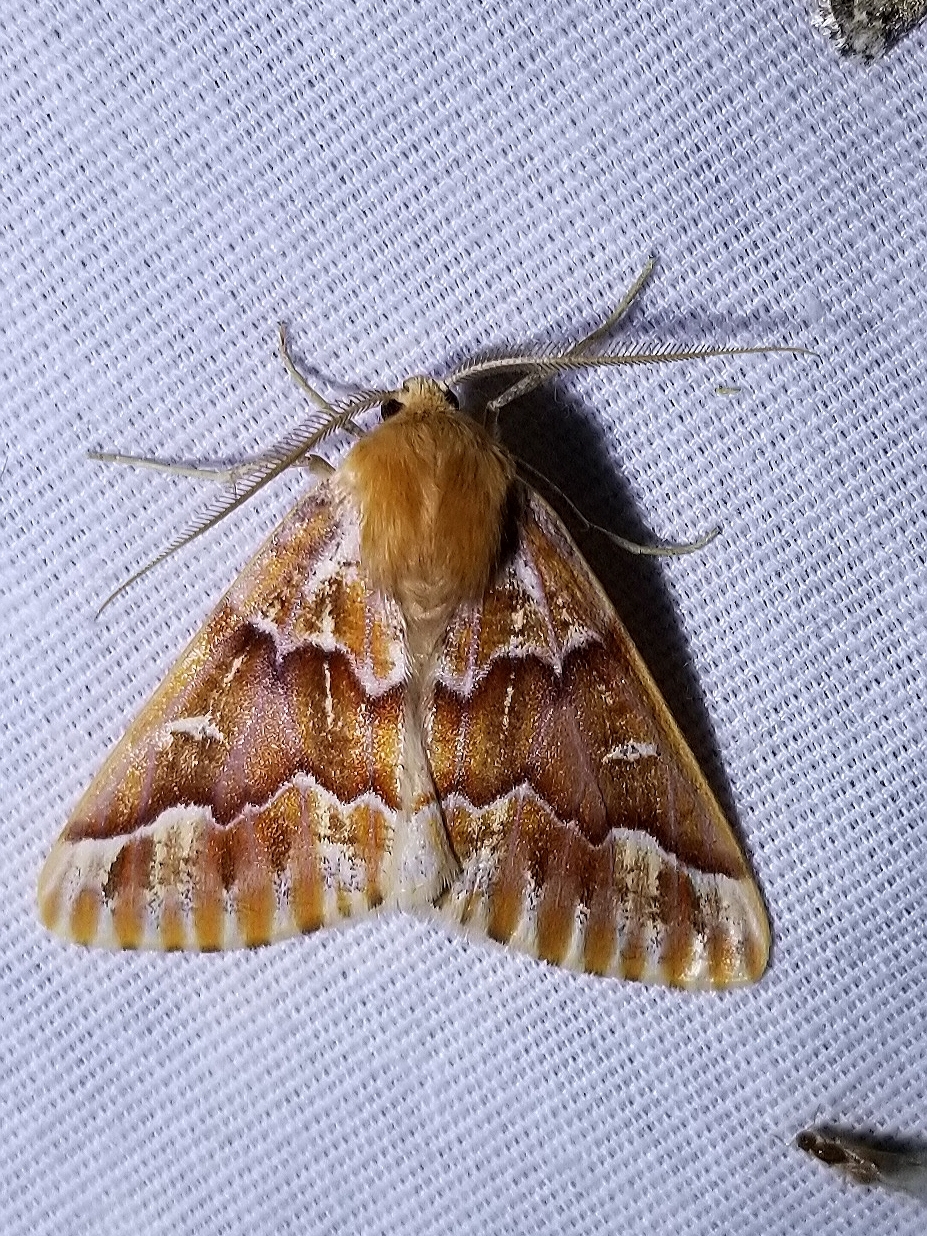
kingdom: Animalia
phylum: Arthropoda
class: Insecta
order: Lepidoptera
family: Geometridae
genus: Caripeta
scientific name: Caripeta aequaliaria
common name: Red girdle moth
